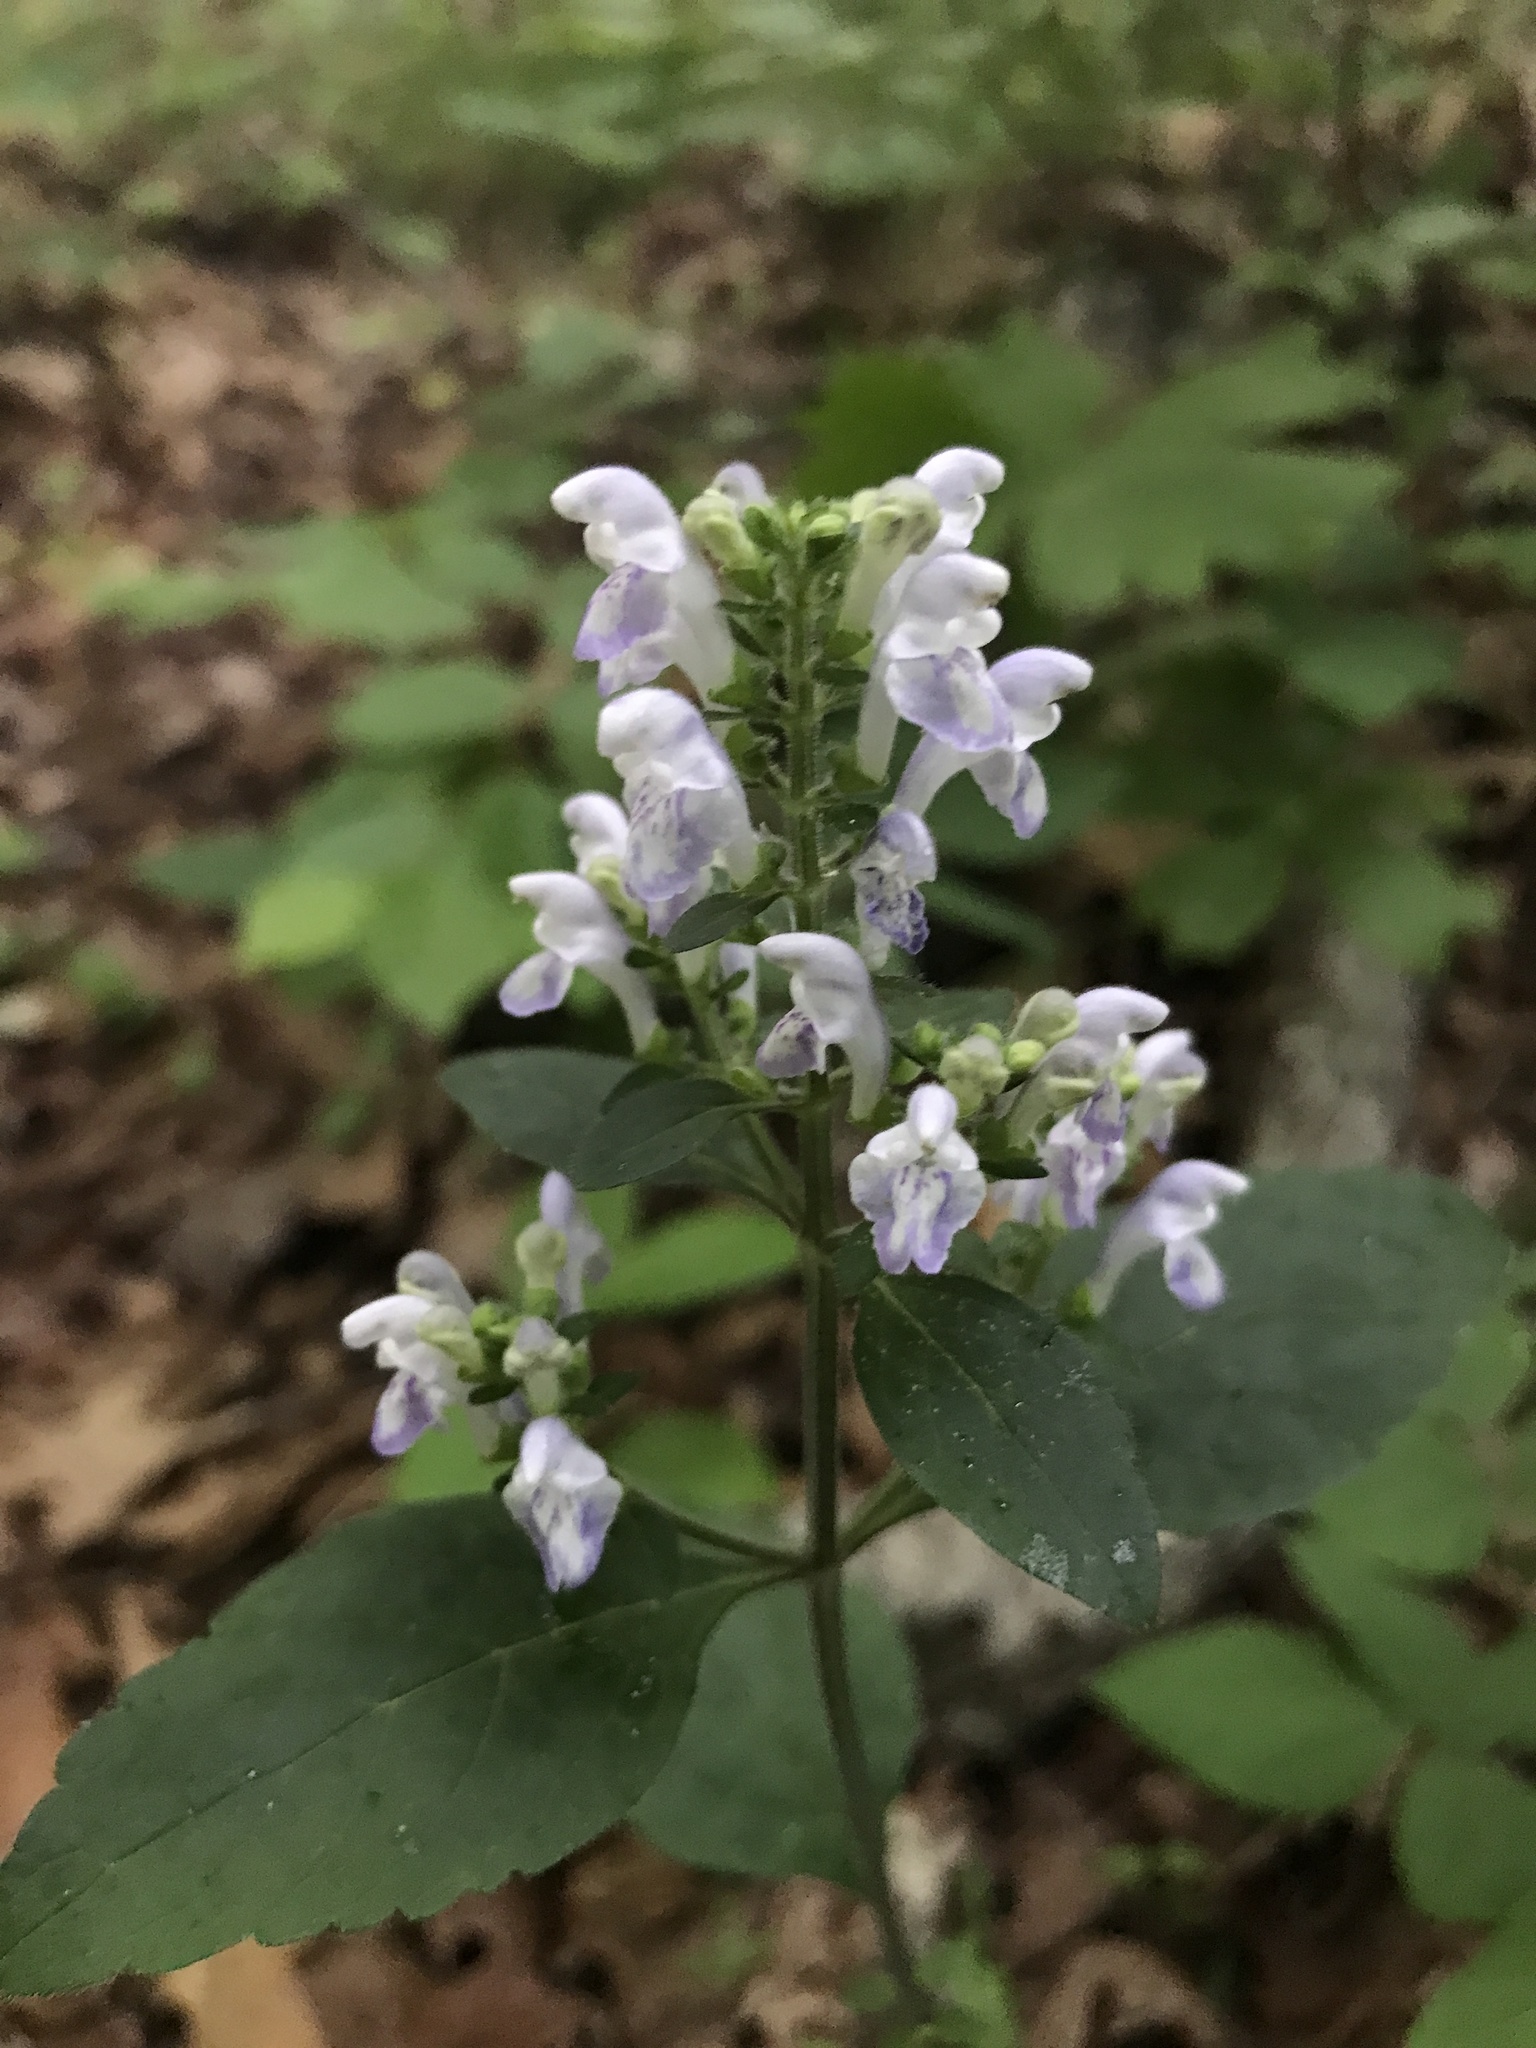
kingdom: Plantae
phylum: Tracheophyta
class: Magnoliopsida
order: Lamiales
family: Lamiaceae
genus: Scutellaria
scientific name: Scutellaria elliptica
